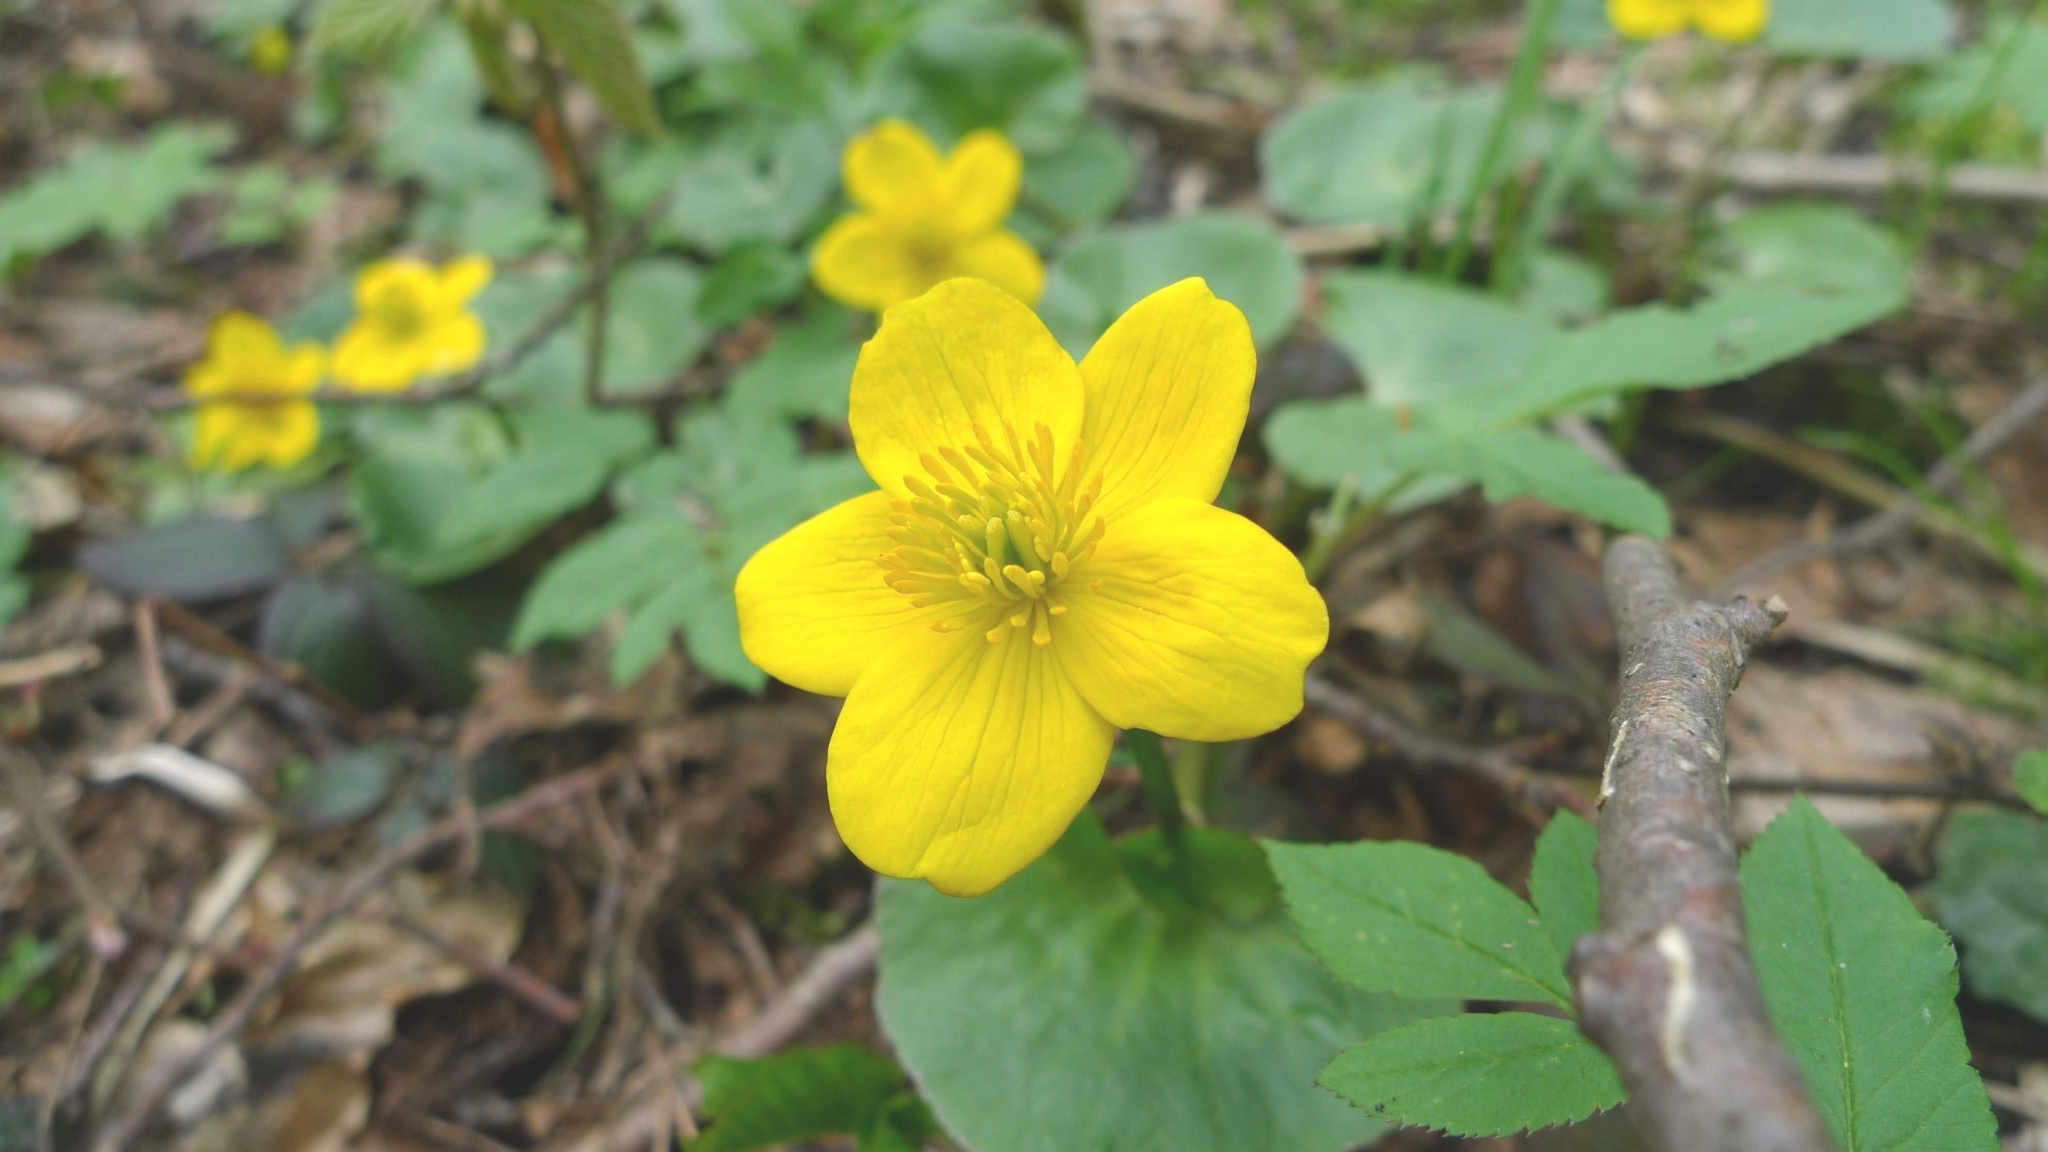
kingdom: Plantae
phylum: Tracheophyta
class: Magnoliopsida
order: Ranunculales
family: Ranunculaceae
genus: Caltha
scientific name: Caltha palustris
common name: Marsh marigold
